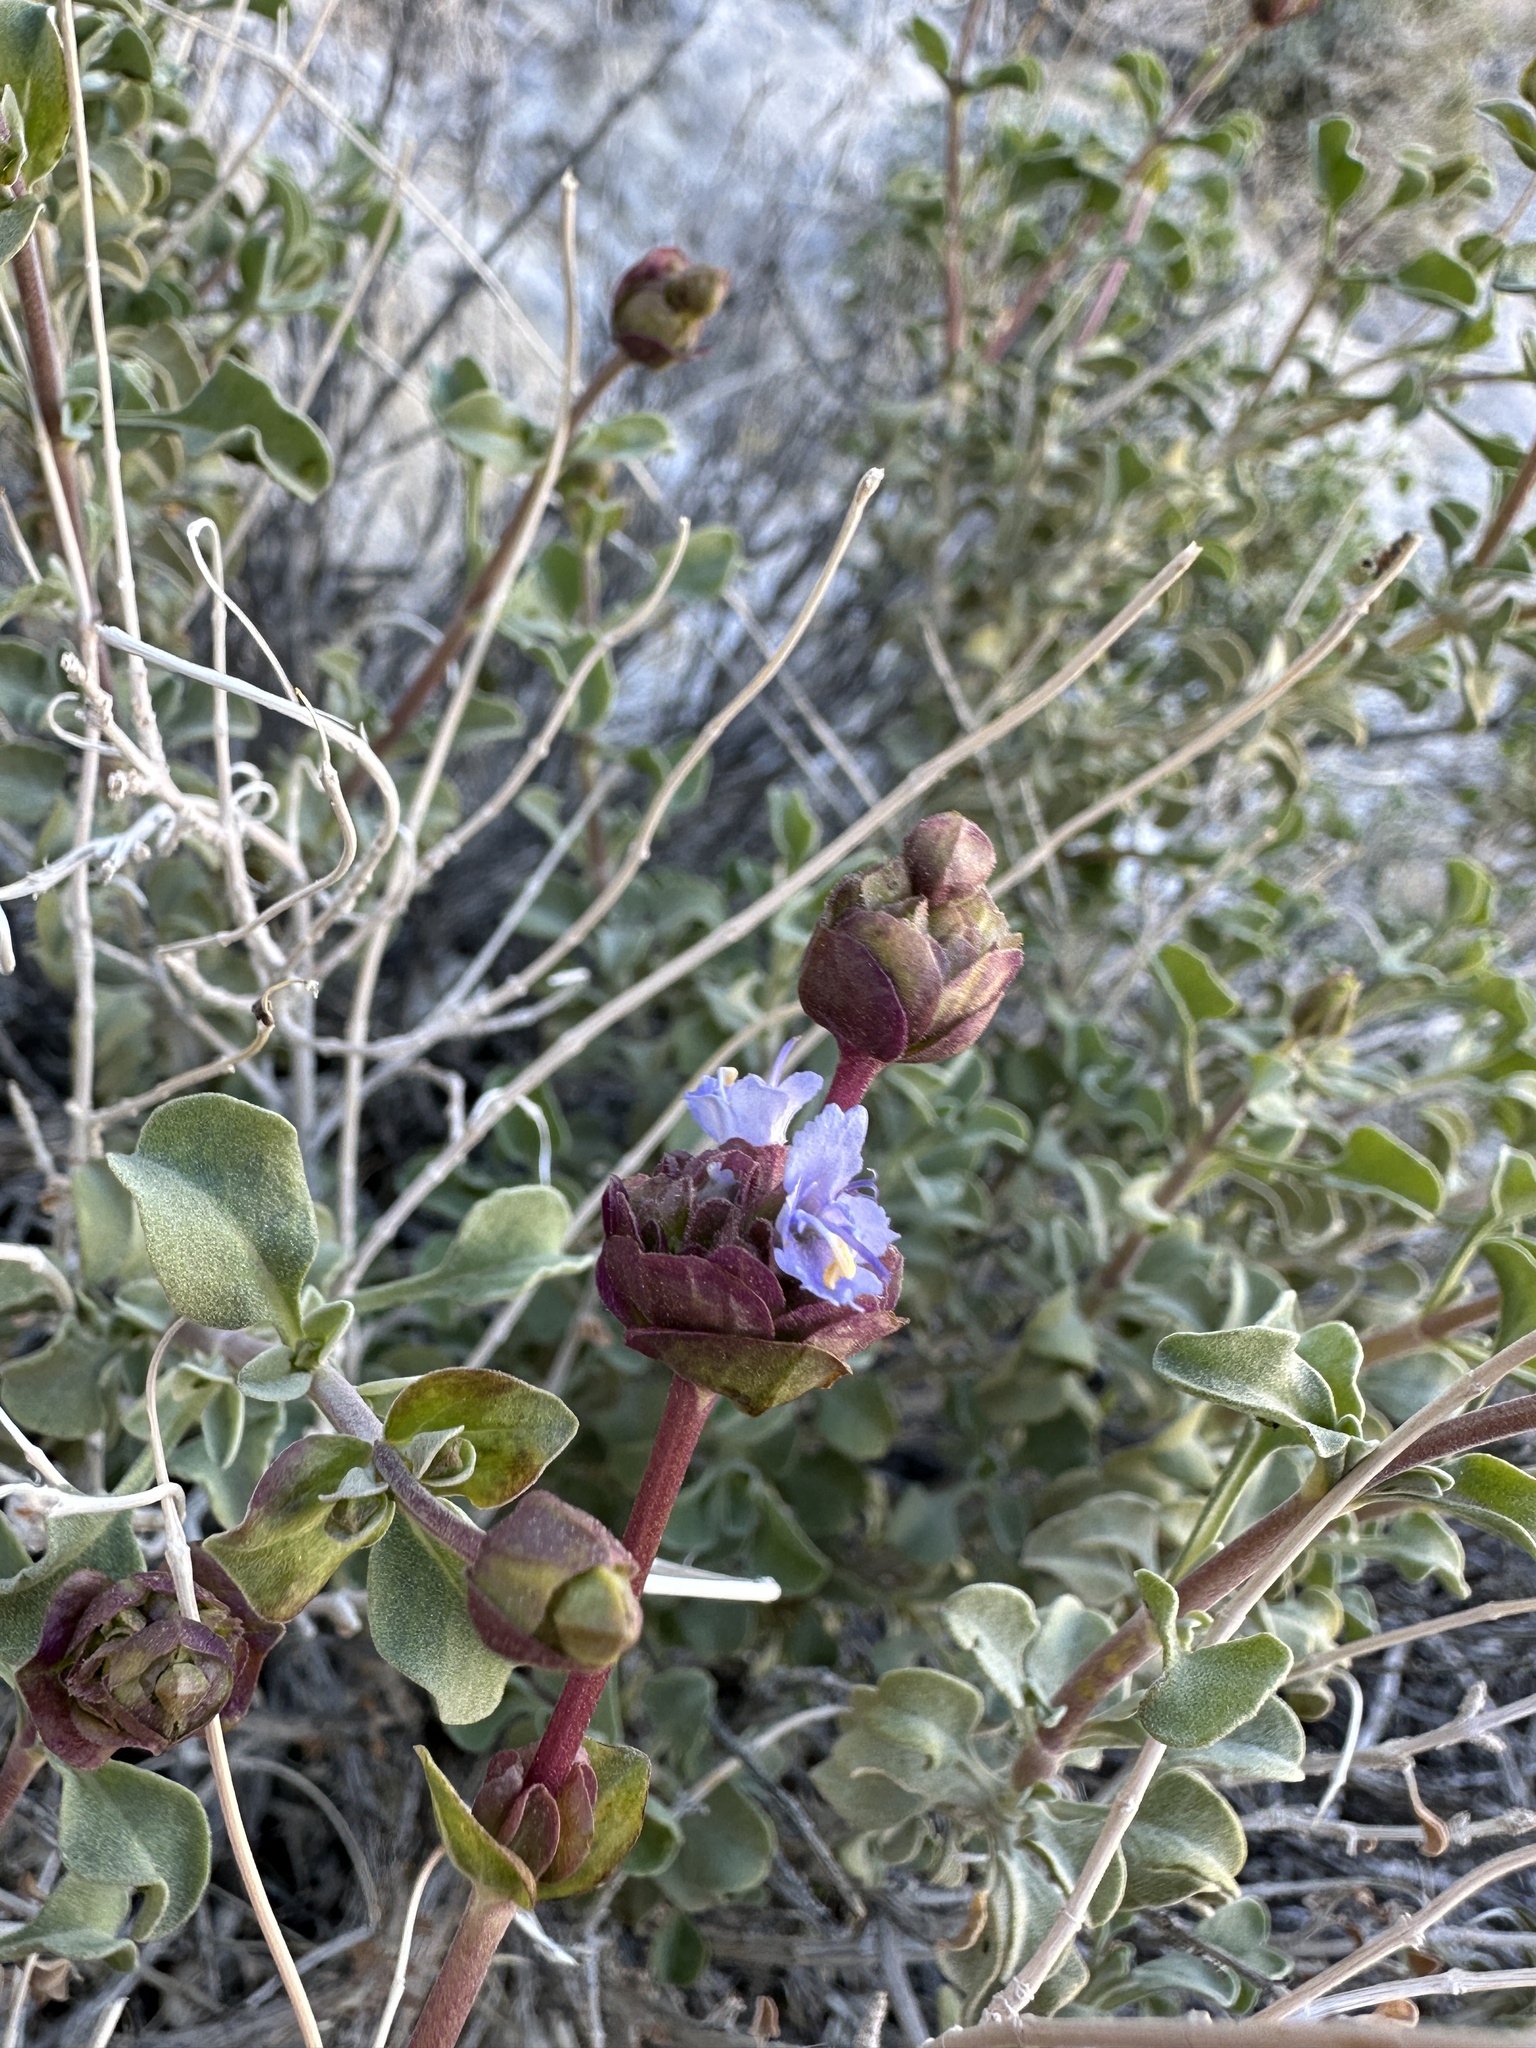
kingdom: Plantae
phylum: Tracheophyta
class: Magnoliopsida
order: Lamiales
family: Lamiaceae
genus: Salvia
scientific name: Salvia dorrii
